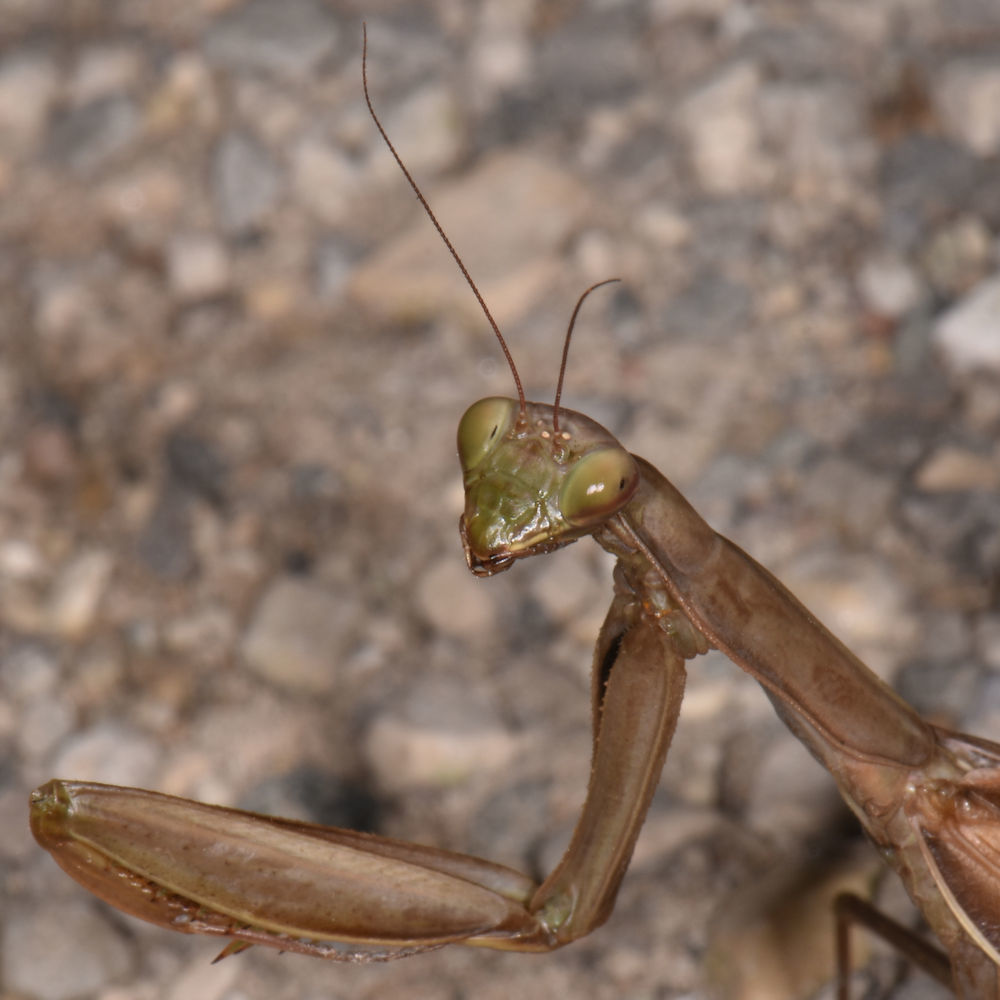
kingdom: Animalia
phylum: Arthropoda
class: Insecta
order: Mantodea
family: Mantidae
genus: Mantis
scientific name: Mantis religiosa
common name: Praying mantis
